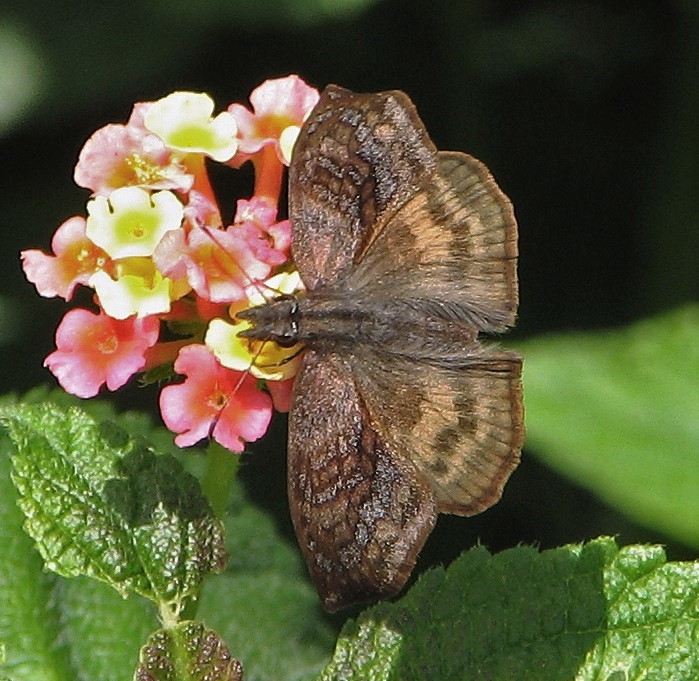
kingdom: Animalia
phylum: Arthropoda
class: Insecta
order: Lepidoptera
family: Hesperiidae
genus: Theagenes
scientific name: Theagenes dichrous
